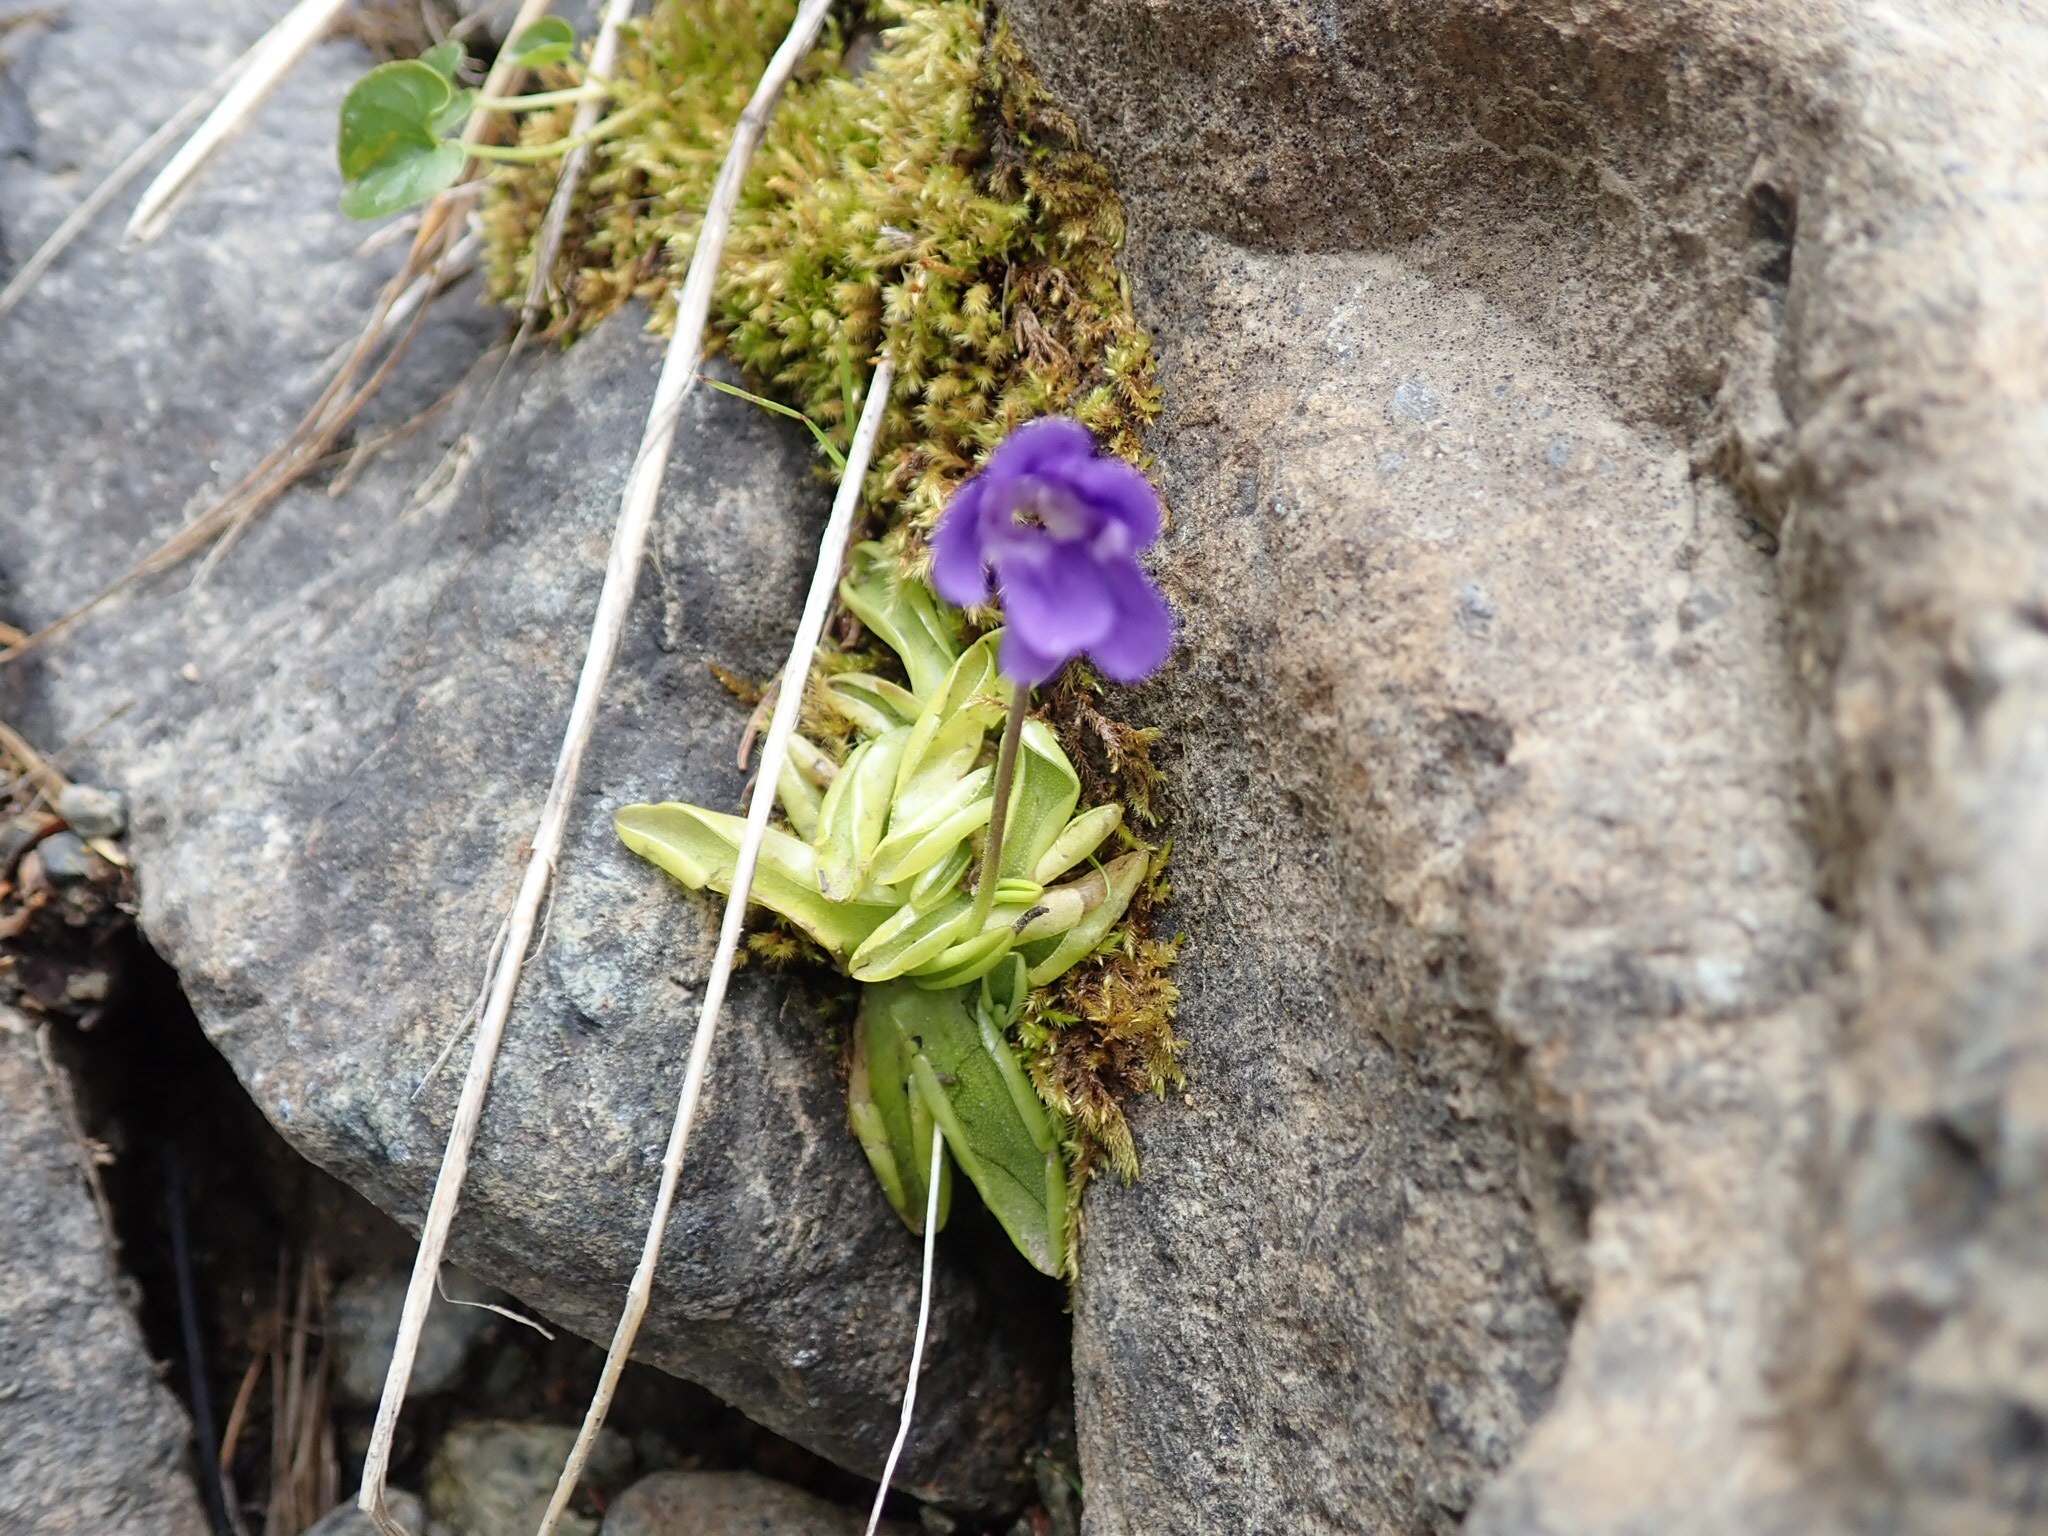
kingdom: Plantae
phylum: Tracheophyta
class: Magnoliopsida
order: Lamiales
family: Lentibulariaceae
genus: Pinguicula
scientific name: Pinguicula vulgaris
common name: Common butterwort
